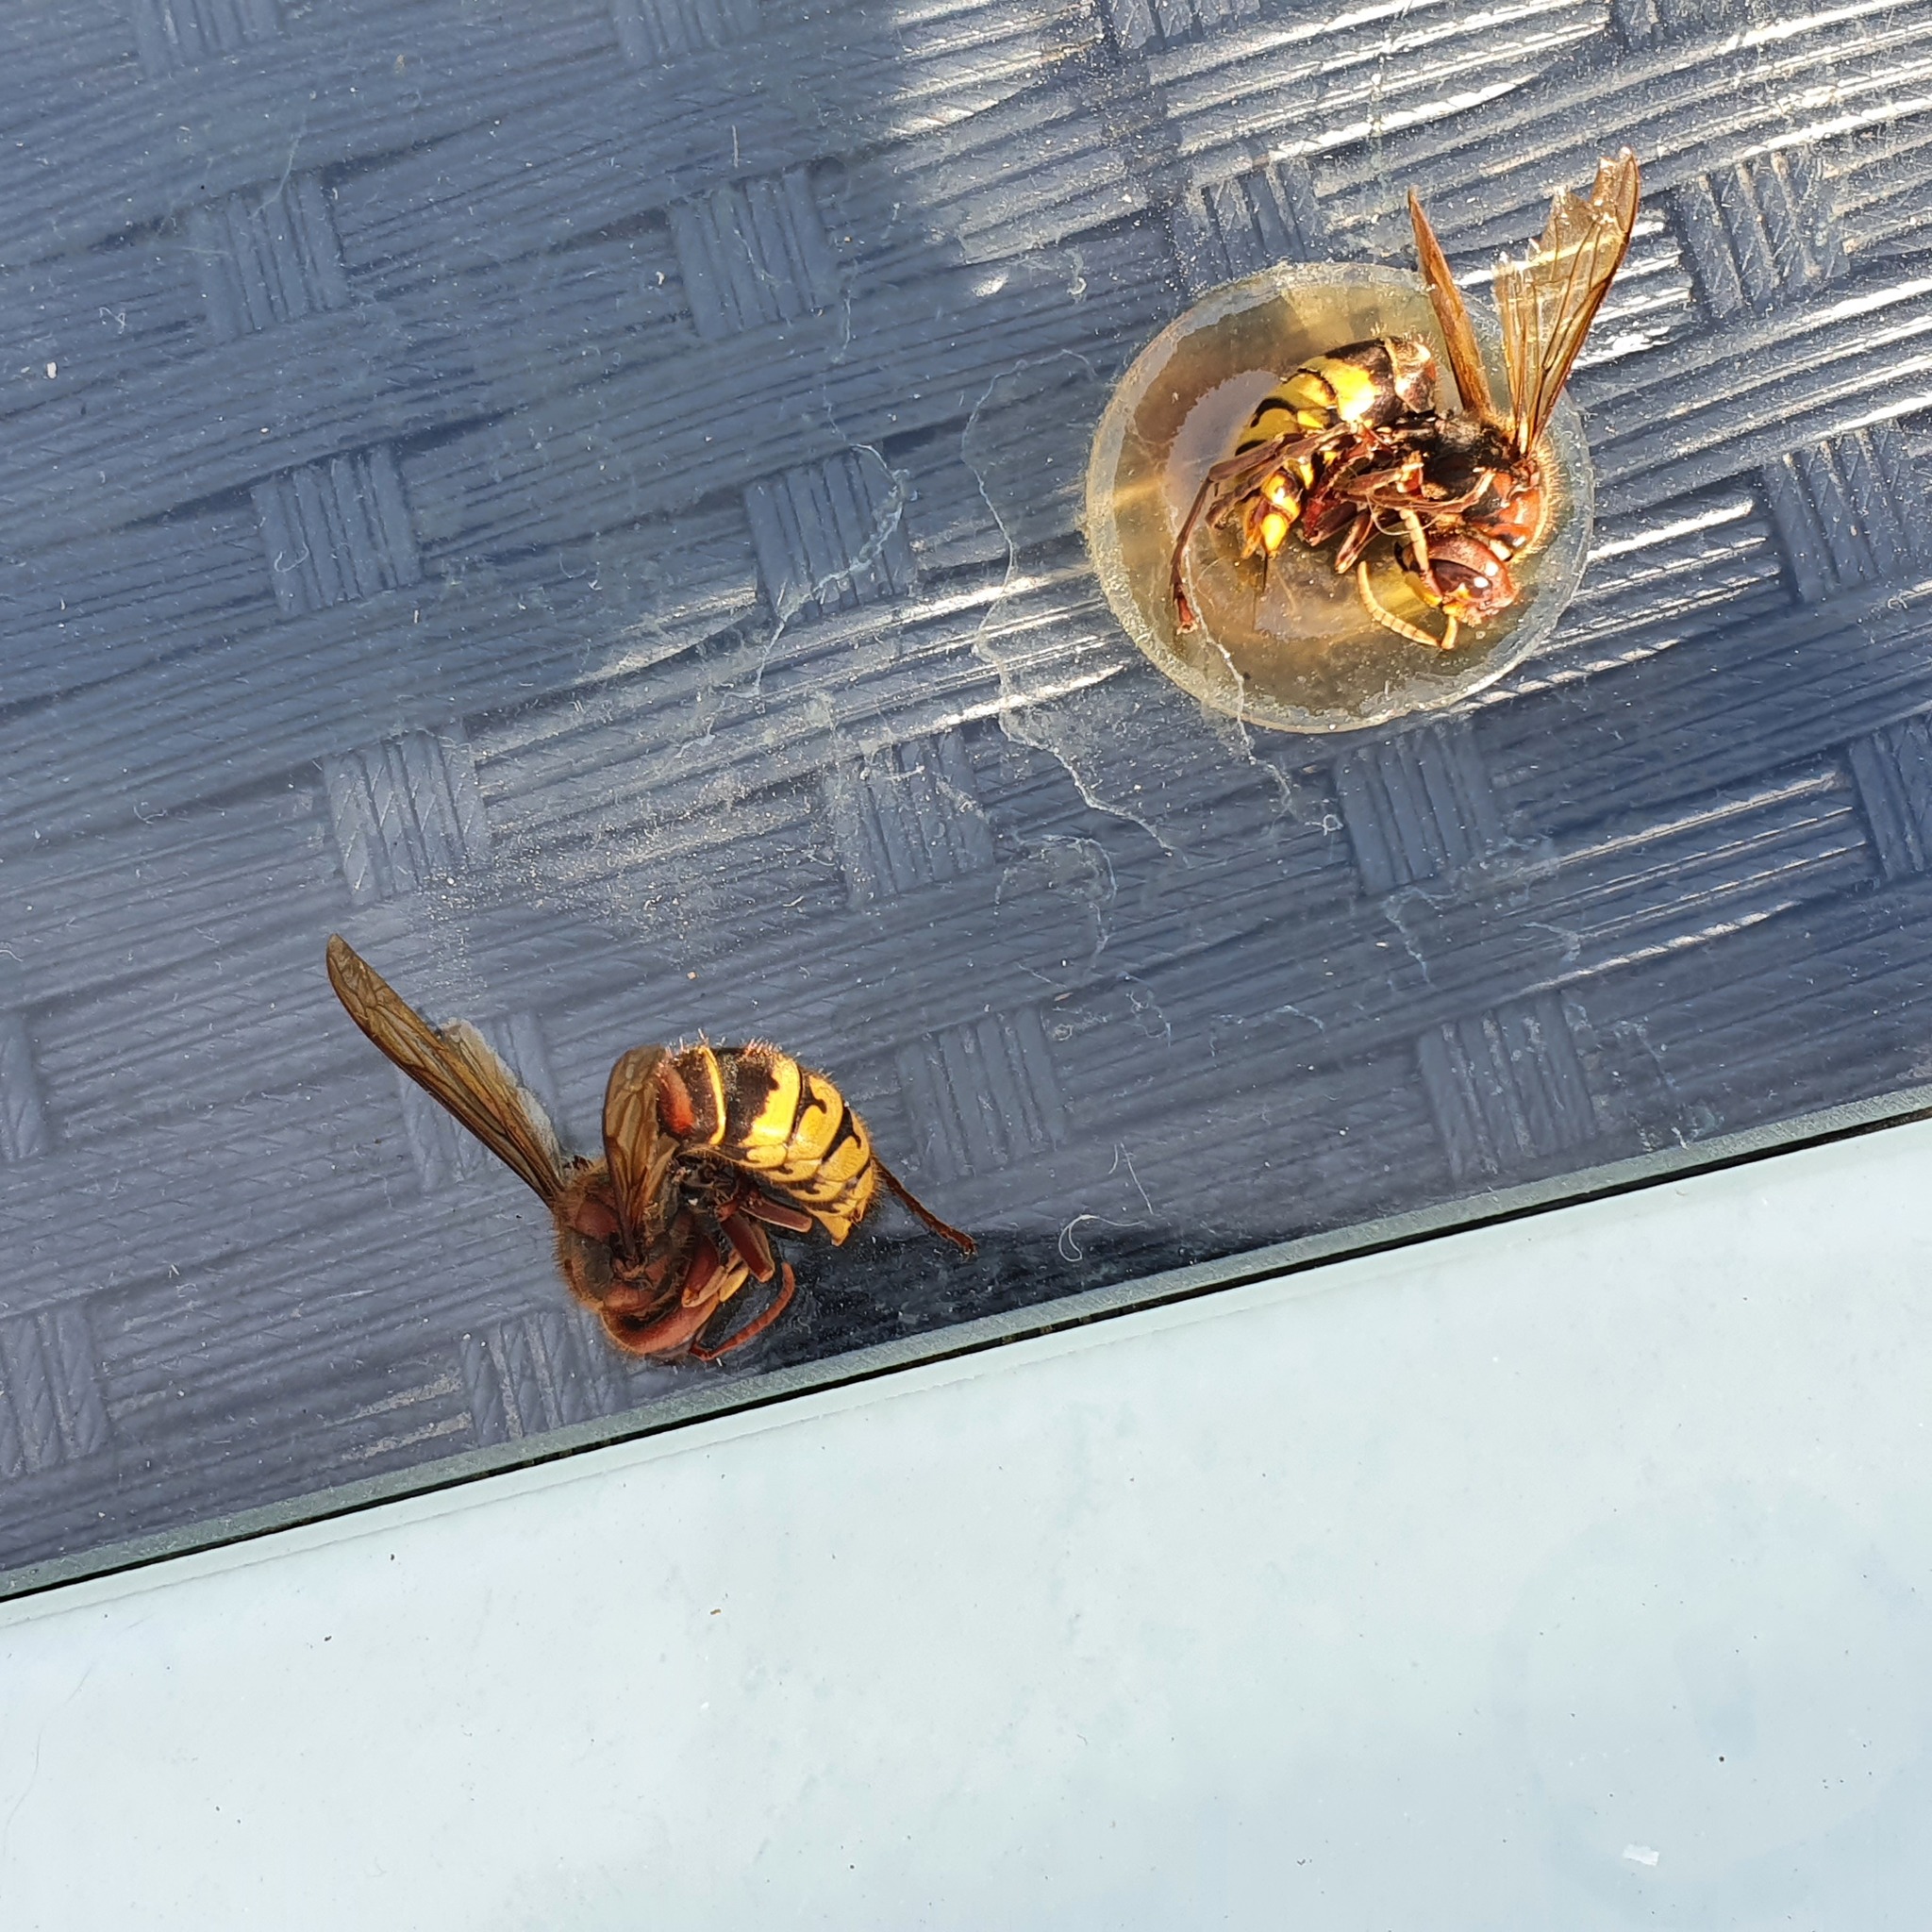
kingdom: Animalia
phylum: Arthropoda
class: Insecta
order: Hymenoptera
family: Vespidae
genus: Vespa
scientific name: Vespa crabro
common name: Hornet
